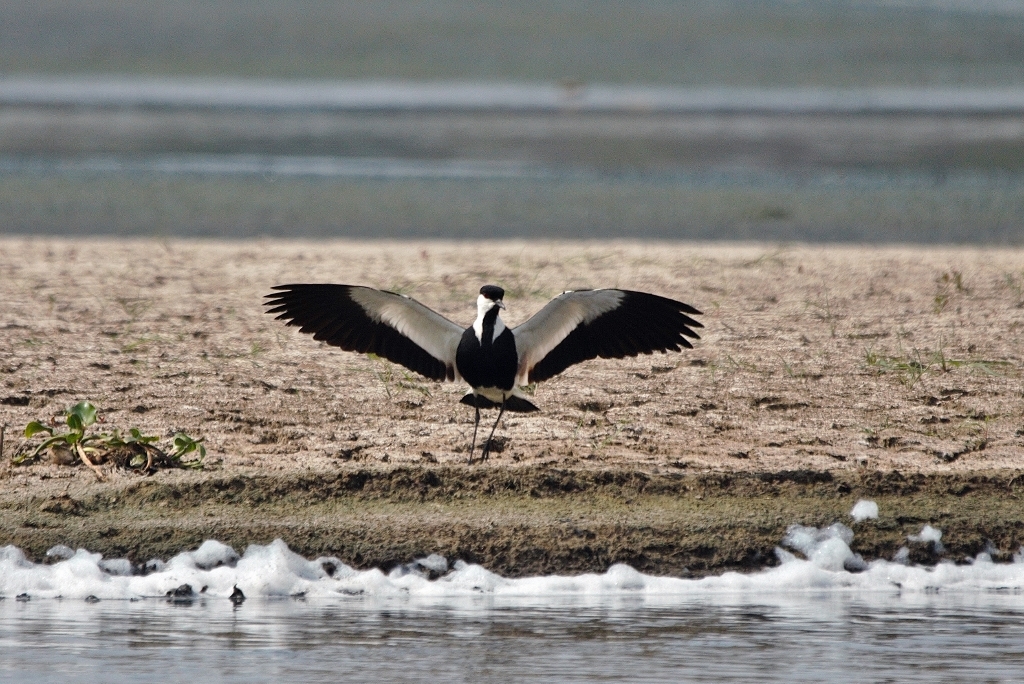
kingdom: Animalia
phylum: Chordata
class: Aves
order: Charadriiformes
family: Charadriidae
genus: Vanellus
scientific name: Vanellus spinosus
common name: Spur-winged lapwing
